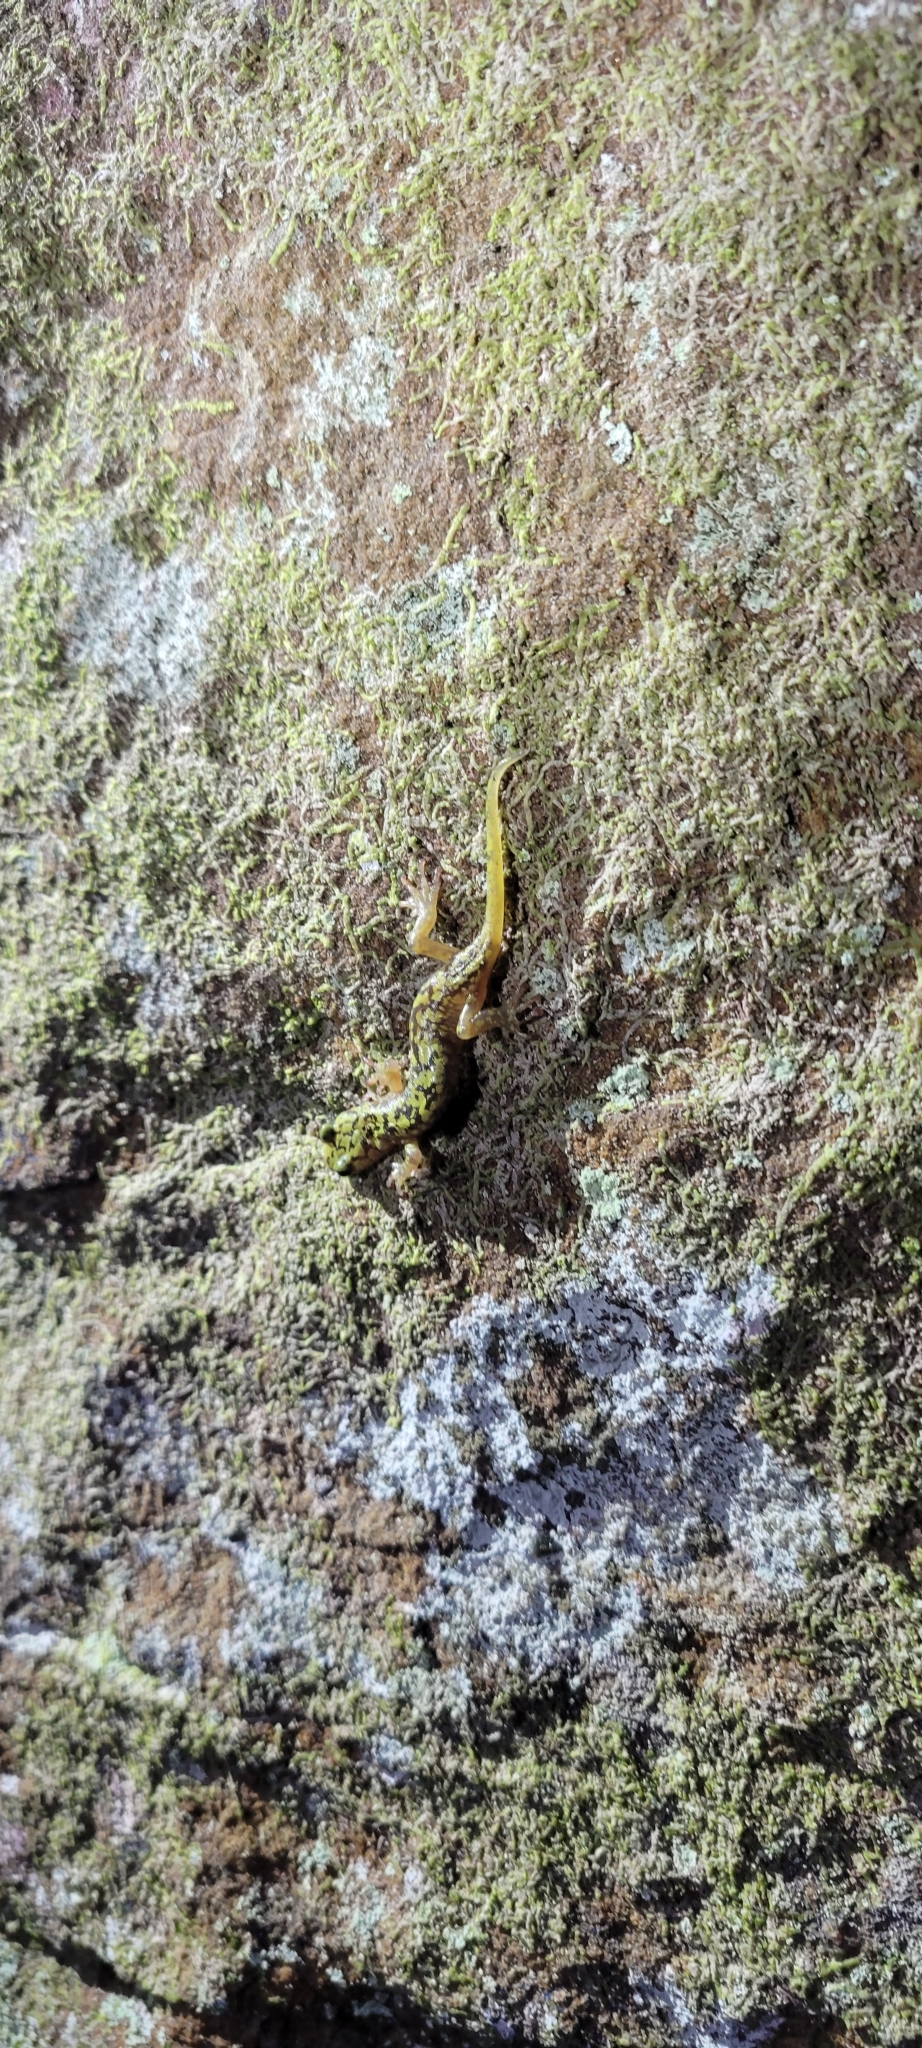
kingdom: Animalia
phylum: Chordata
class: Amphibia
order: Caudata
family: Plethodontidae
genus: Aneides
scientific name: Aneides aeneus
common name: Green salamander
